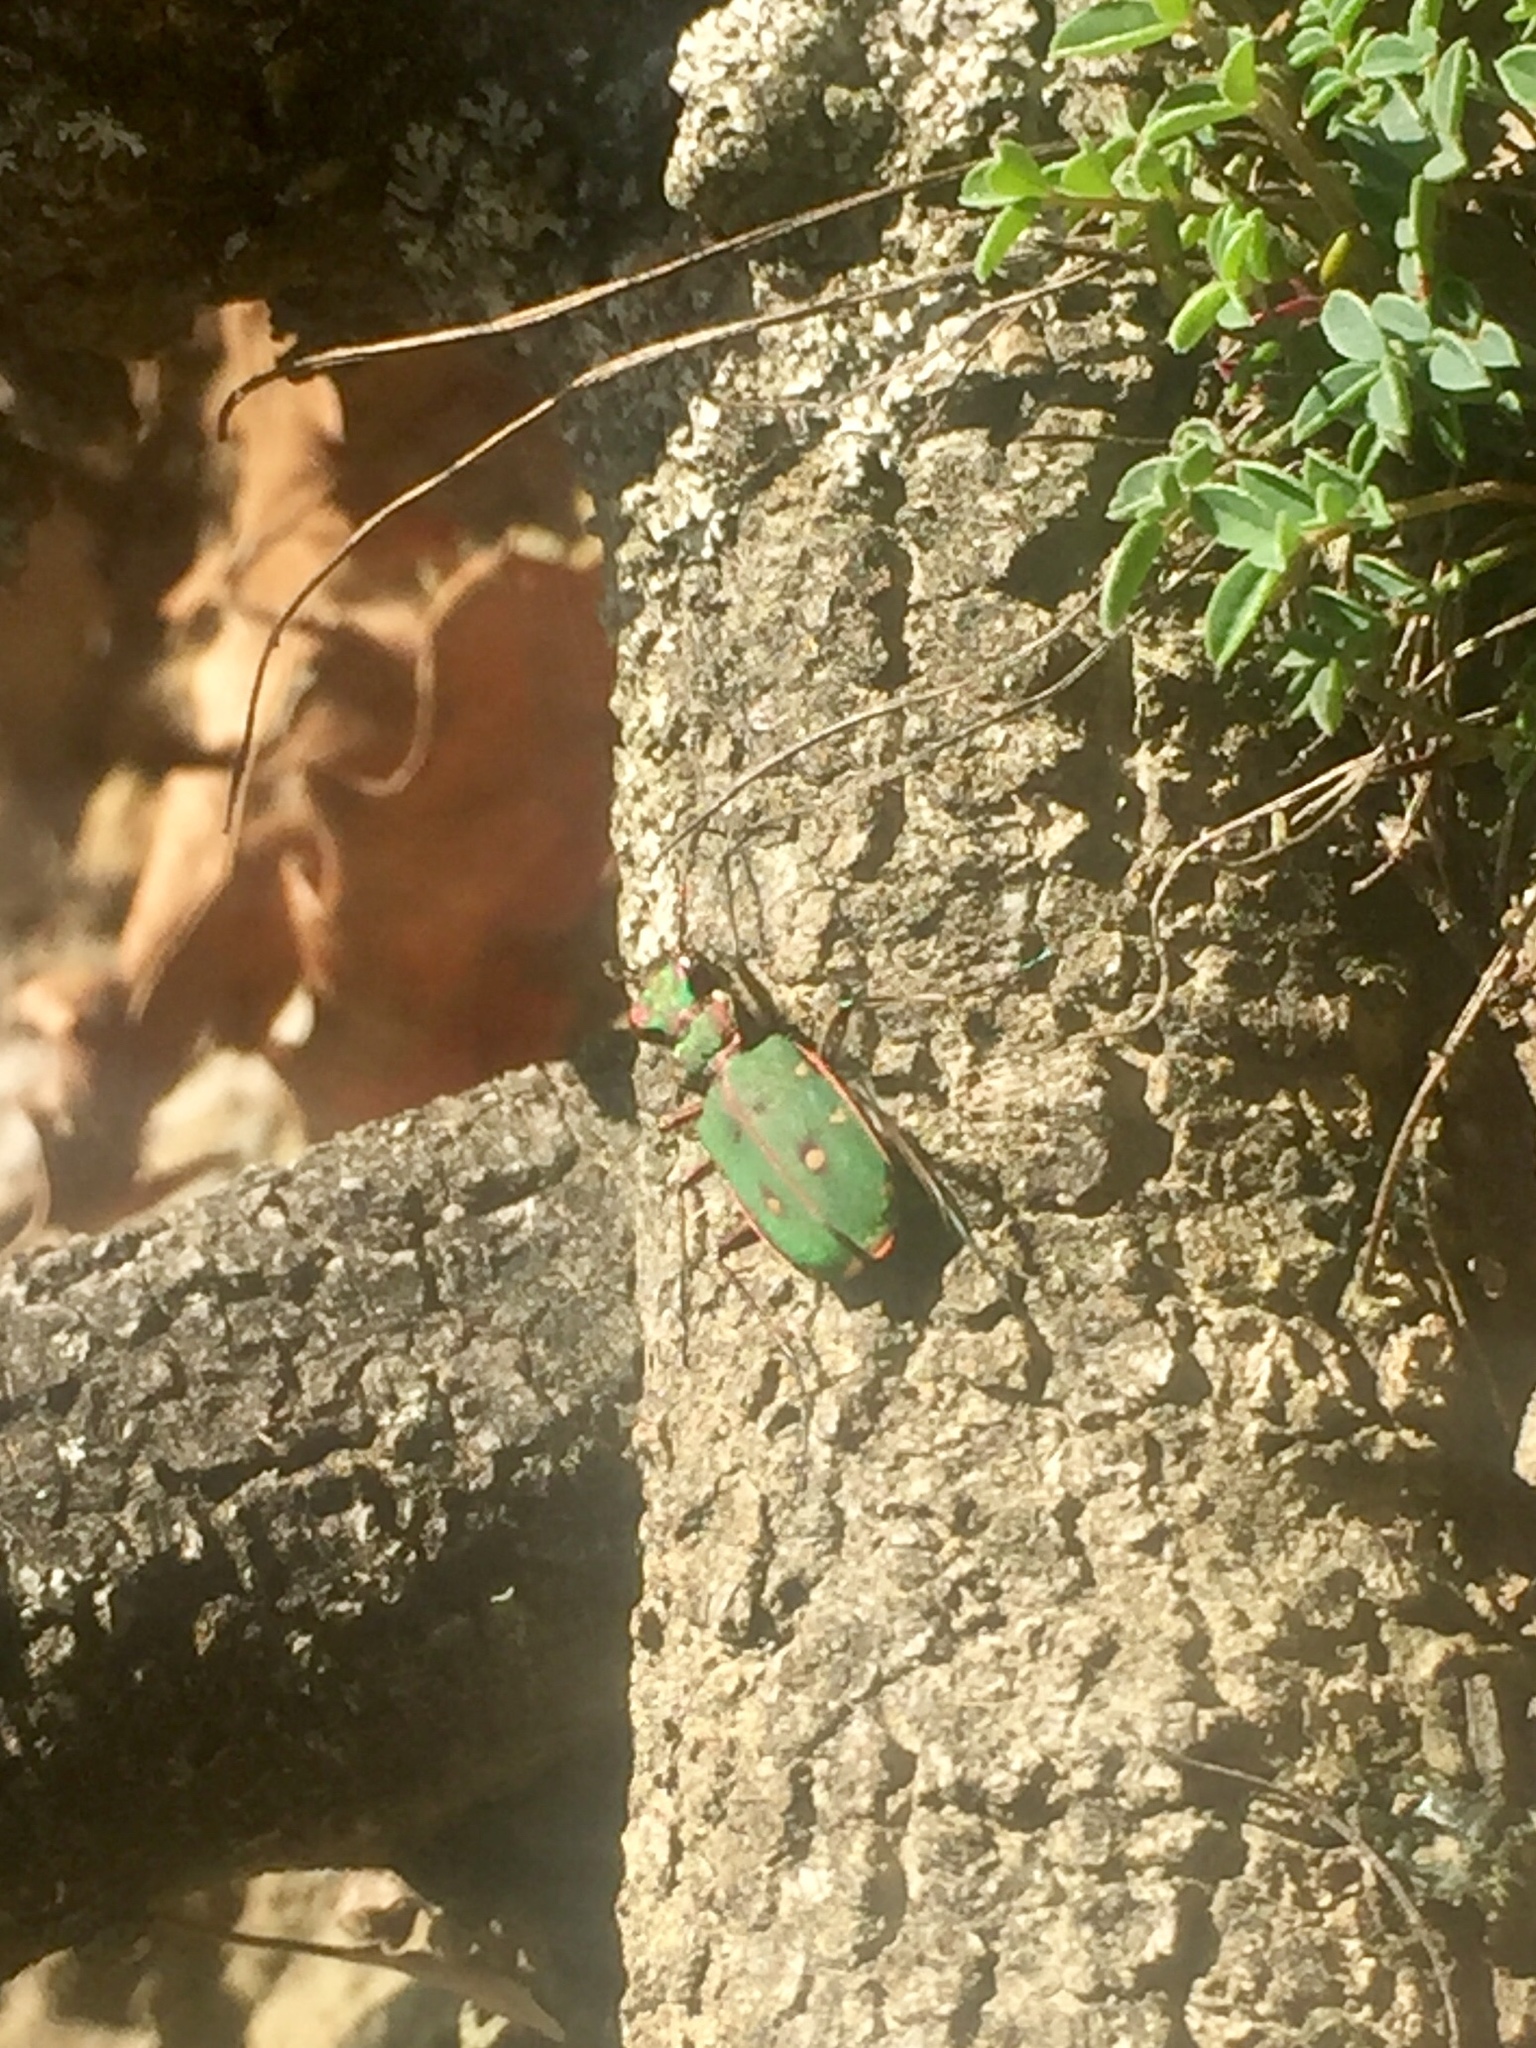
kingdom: Animalia
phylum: Arthropoda
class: Insecta
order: Coleoptera
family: Carabidae
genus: Cicindela
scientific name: Cicindela campestris
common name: Common tiger beetle
